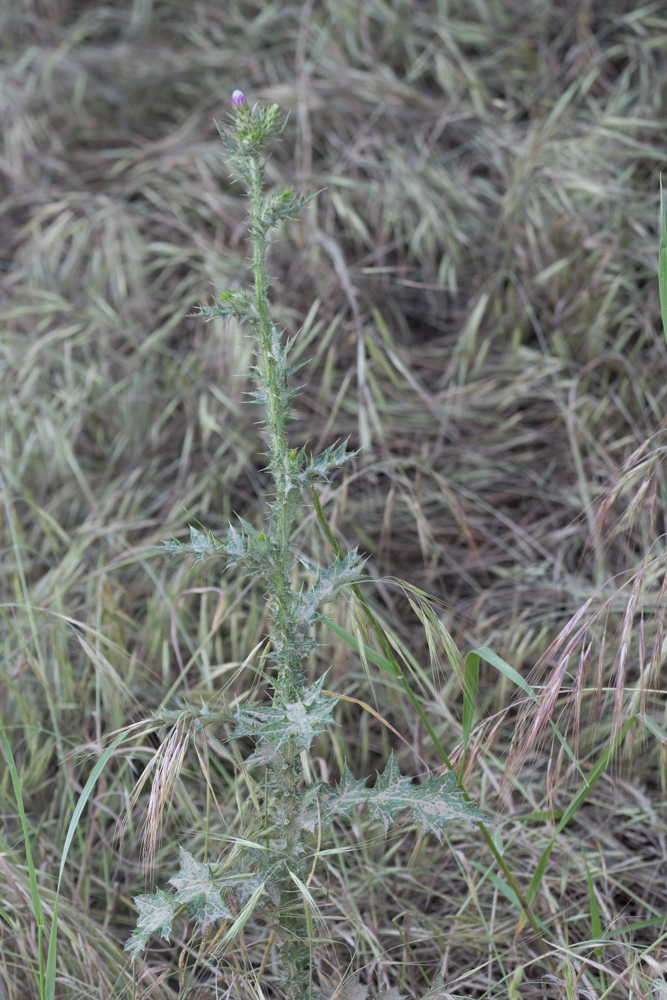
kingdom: Plantae
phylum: Tracheophyta
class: Magnoliopsida
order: Asterales
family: Asteraceae
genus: Carduus
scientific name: Carduus pycnocephalus
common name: Plymouth thistle
